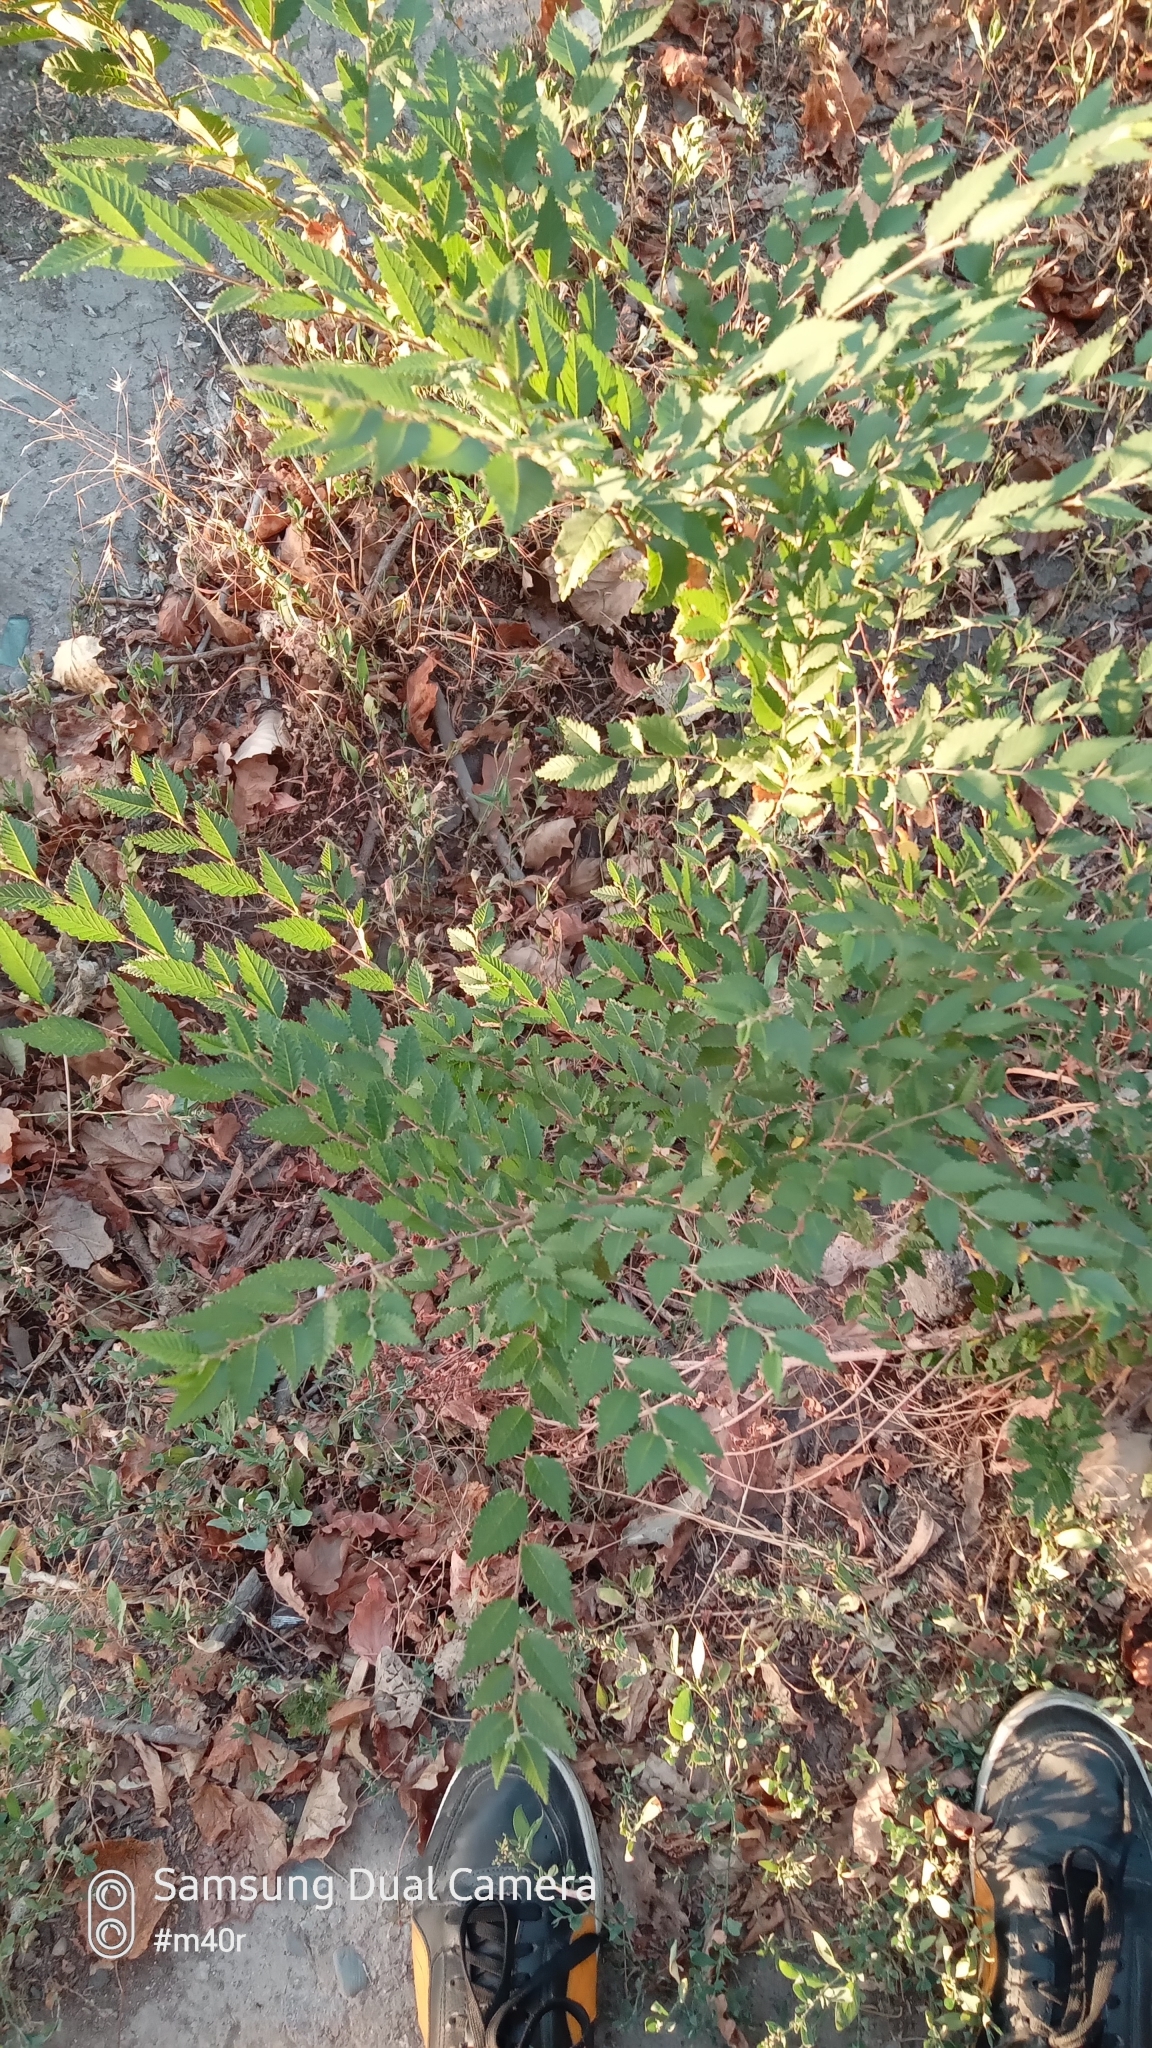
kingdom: Plantae
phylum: Tracheophyta
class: Magnoliopsida
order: Rosales
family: Ulmaceae
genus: Ulmus
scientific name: Ulmus pumila
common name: Siberian elm
